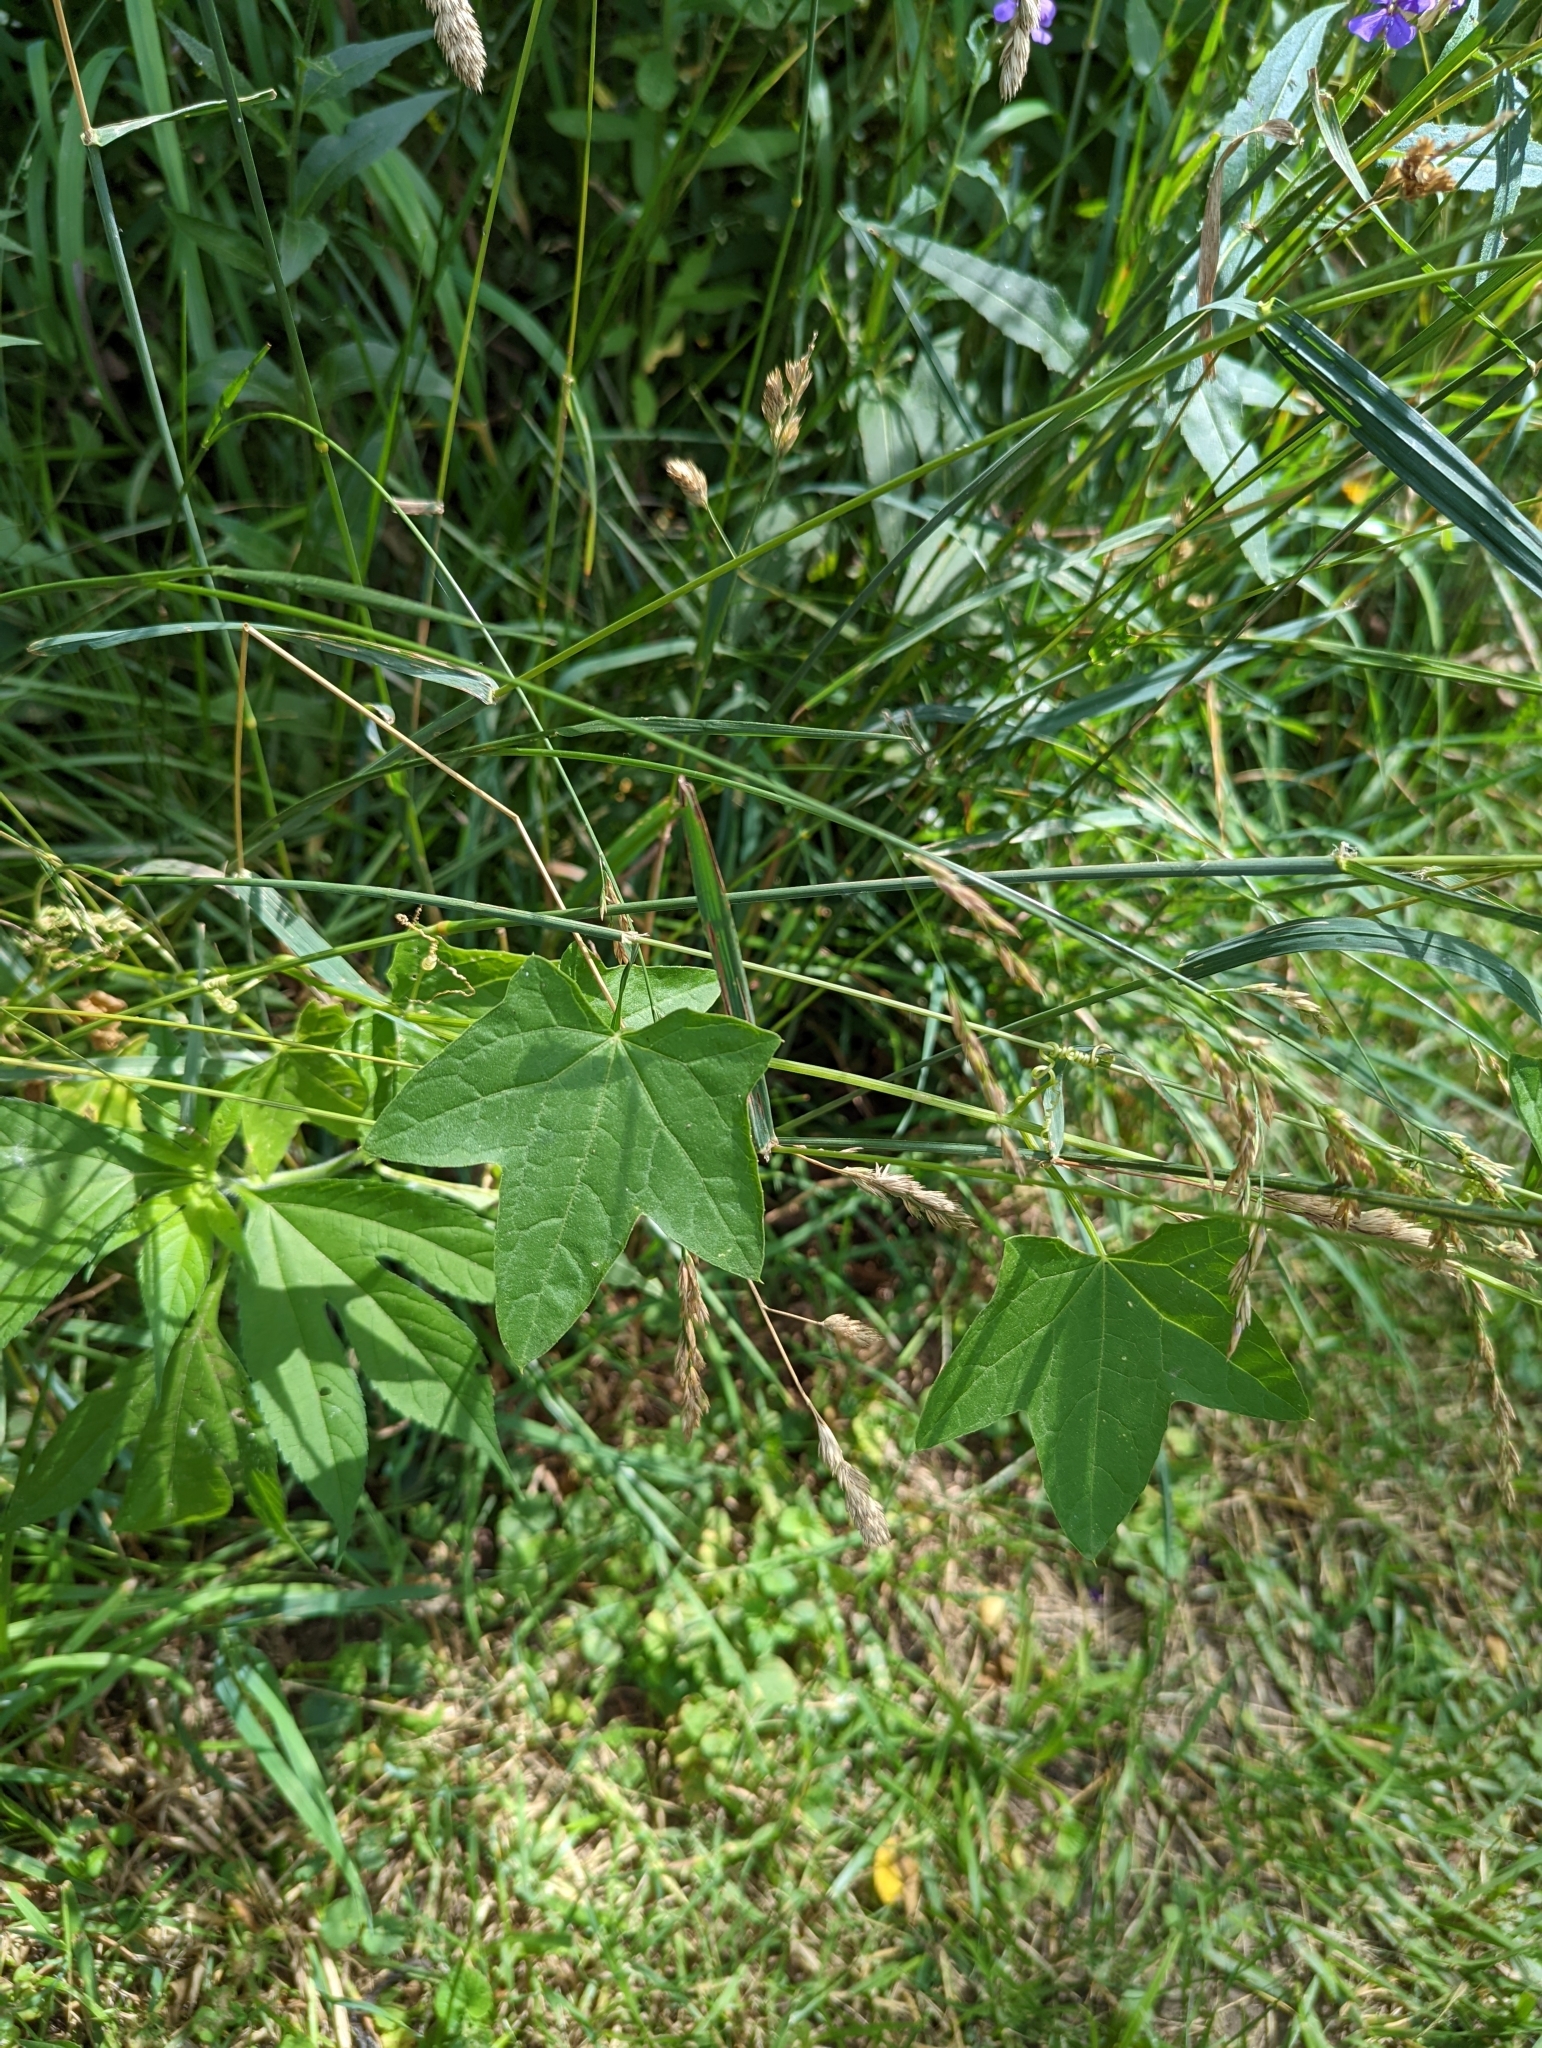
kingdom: Plantae
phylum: Tracheophyta
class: Magnoliopsida
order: Cucurbitales
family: Cucurbitaceae
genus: Echinocystis
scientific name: Echinocystis lobata
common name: Wild cucumber
